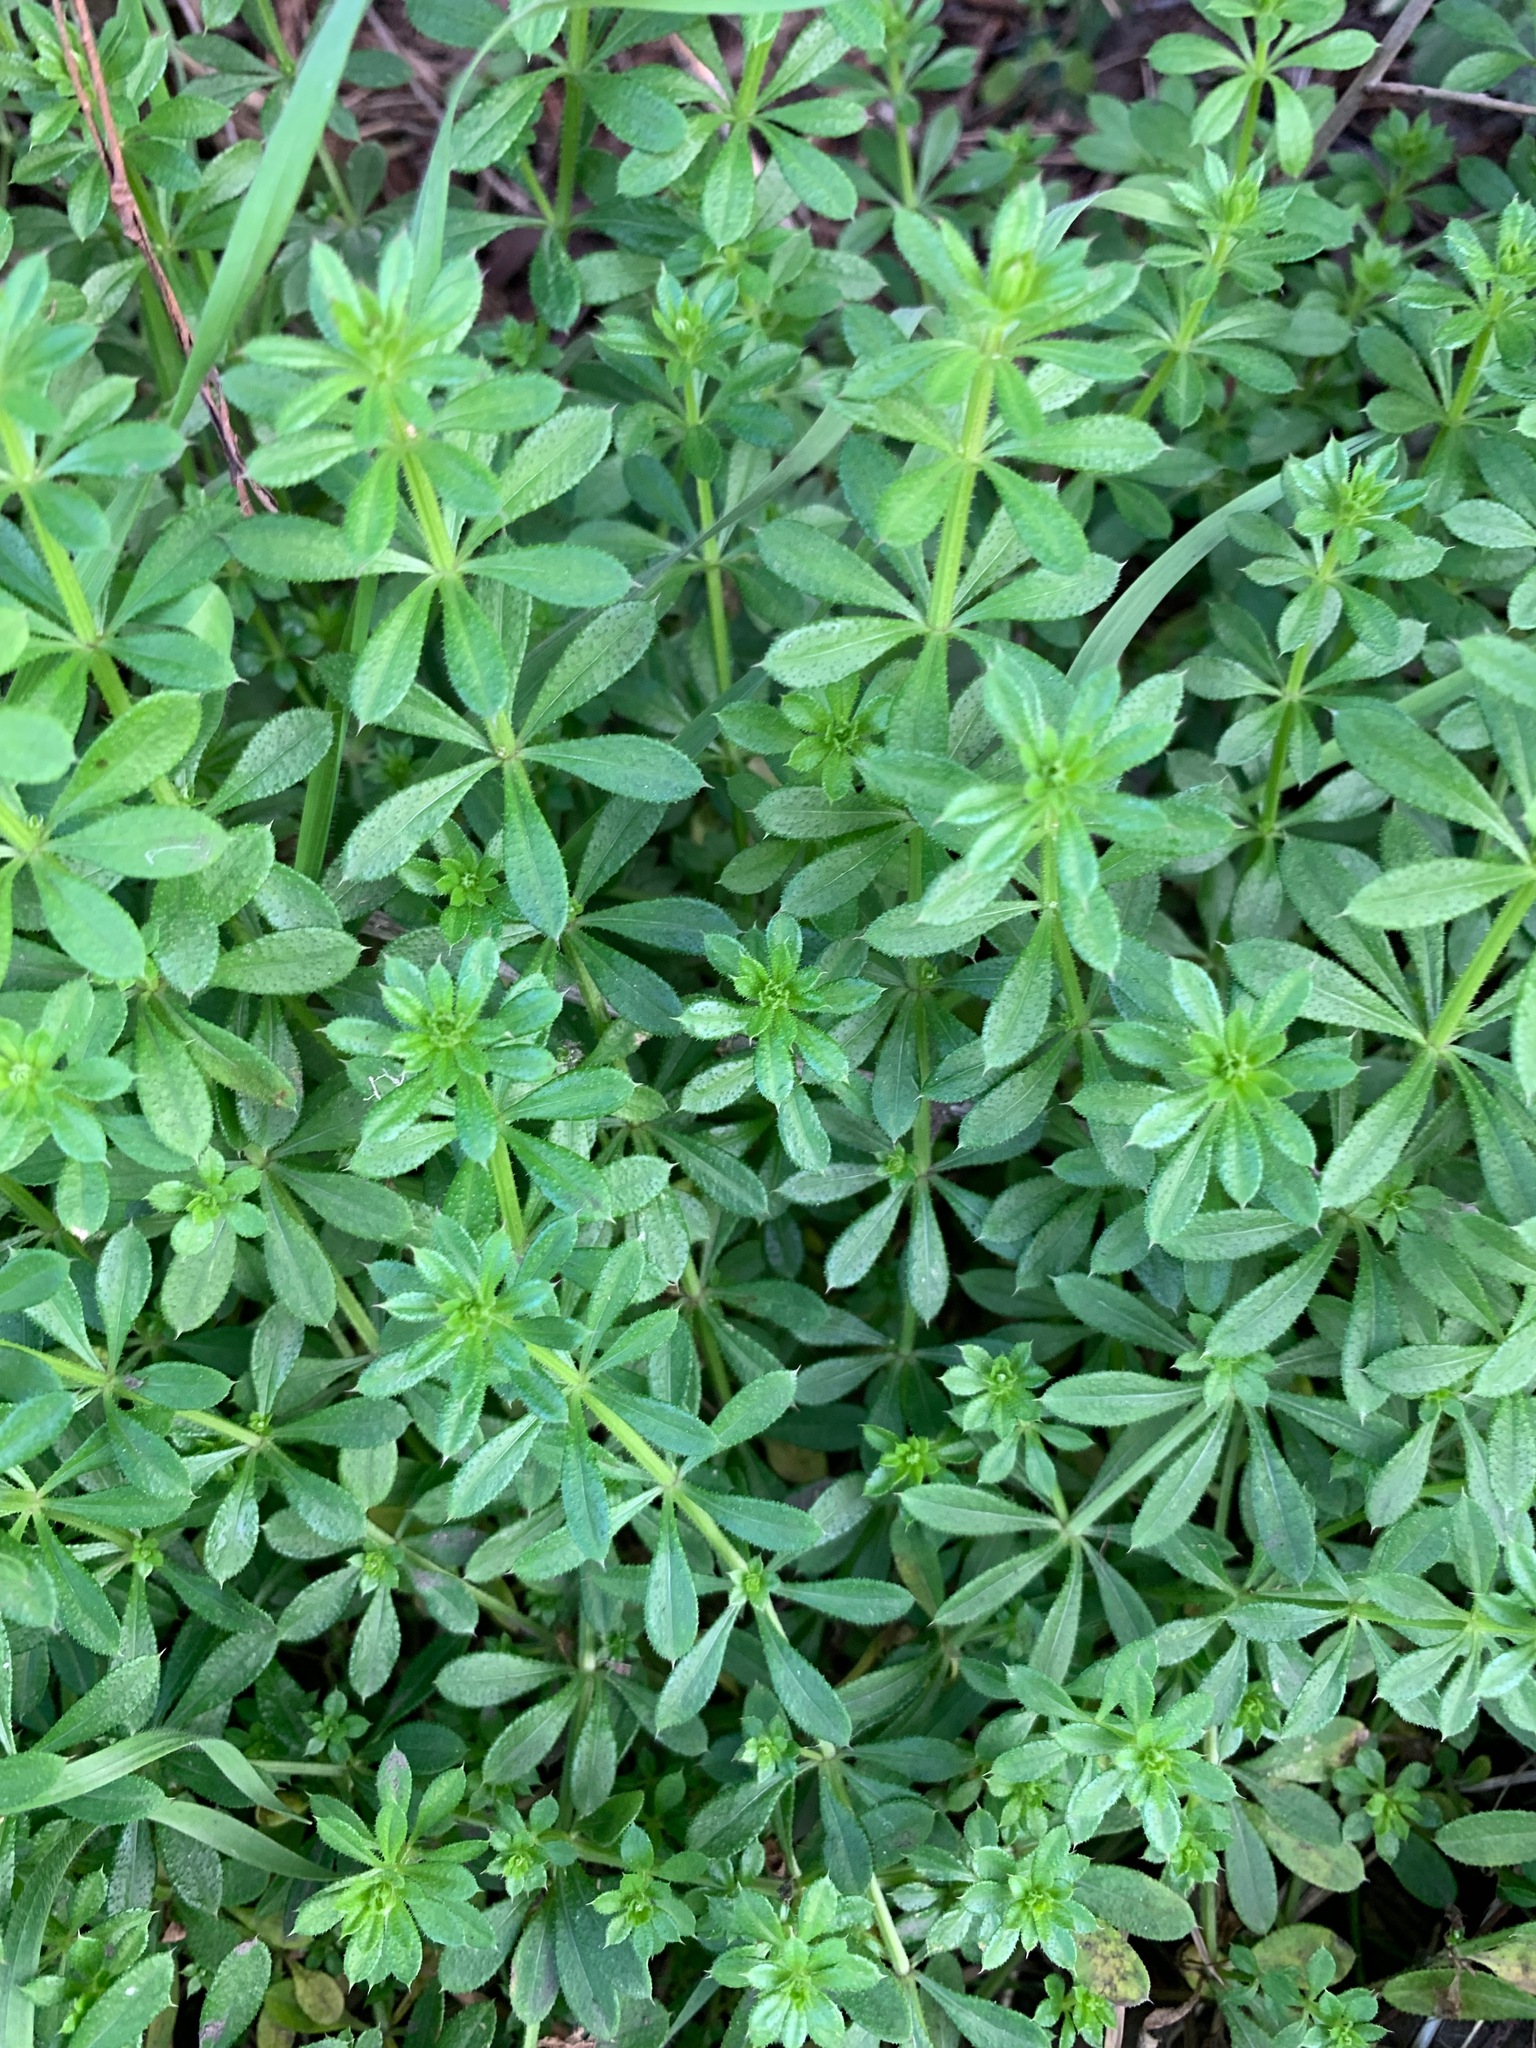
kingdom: Plantae
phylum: Tracheophyta
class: Magnoliopsida
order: Gentianales
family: Rubiaceae
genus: Galium
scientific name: Galium aparine
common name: Cleavers
